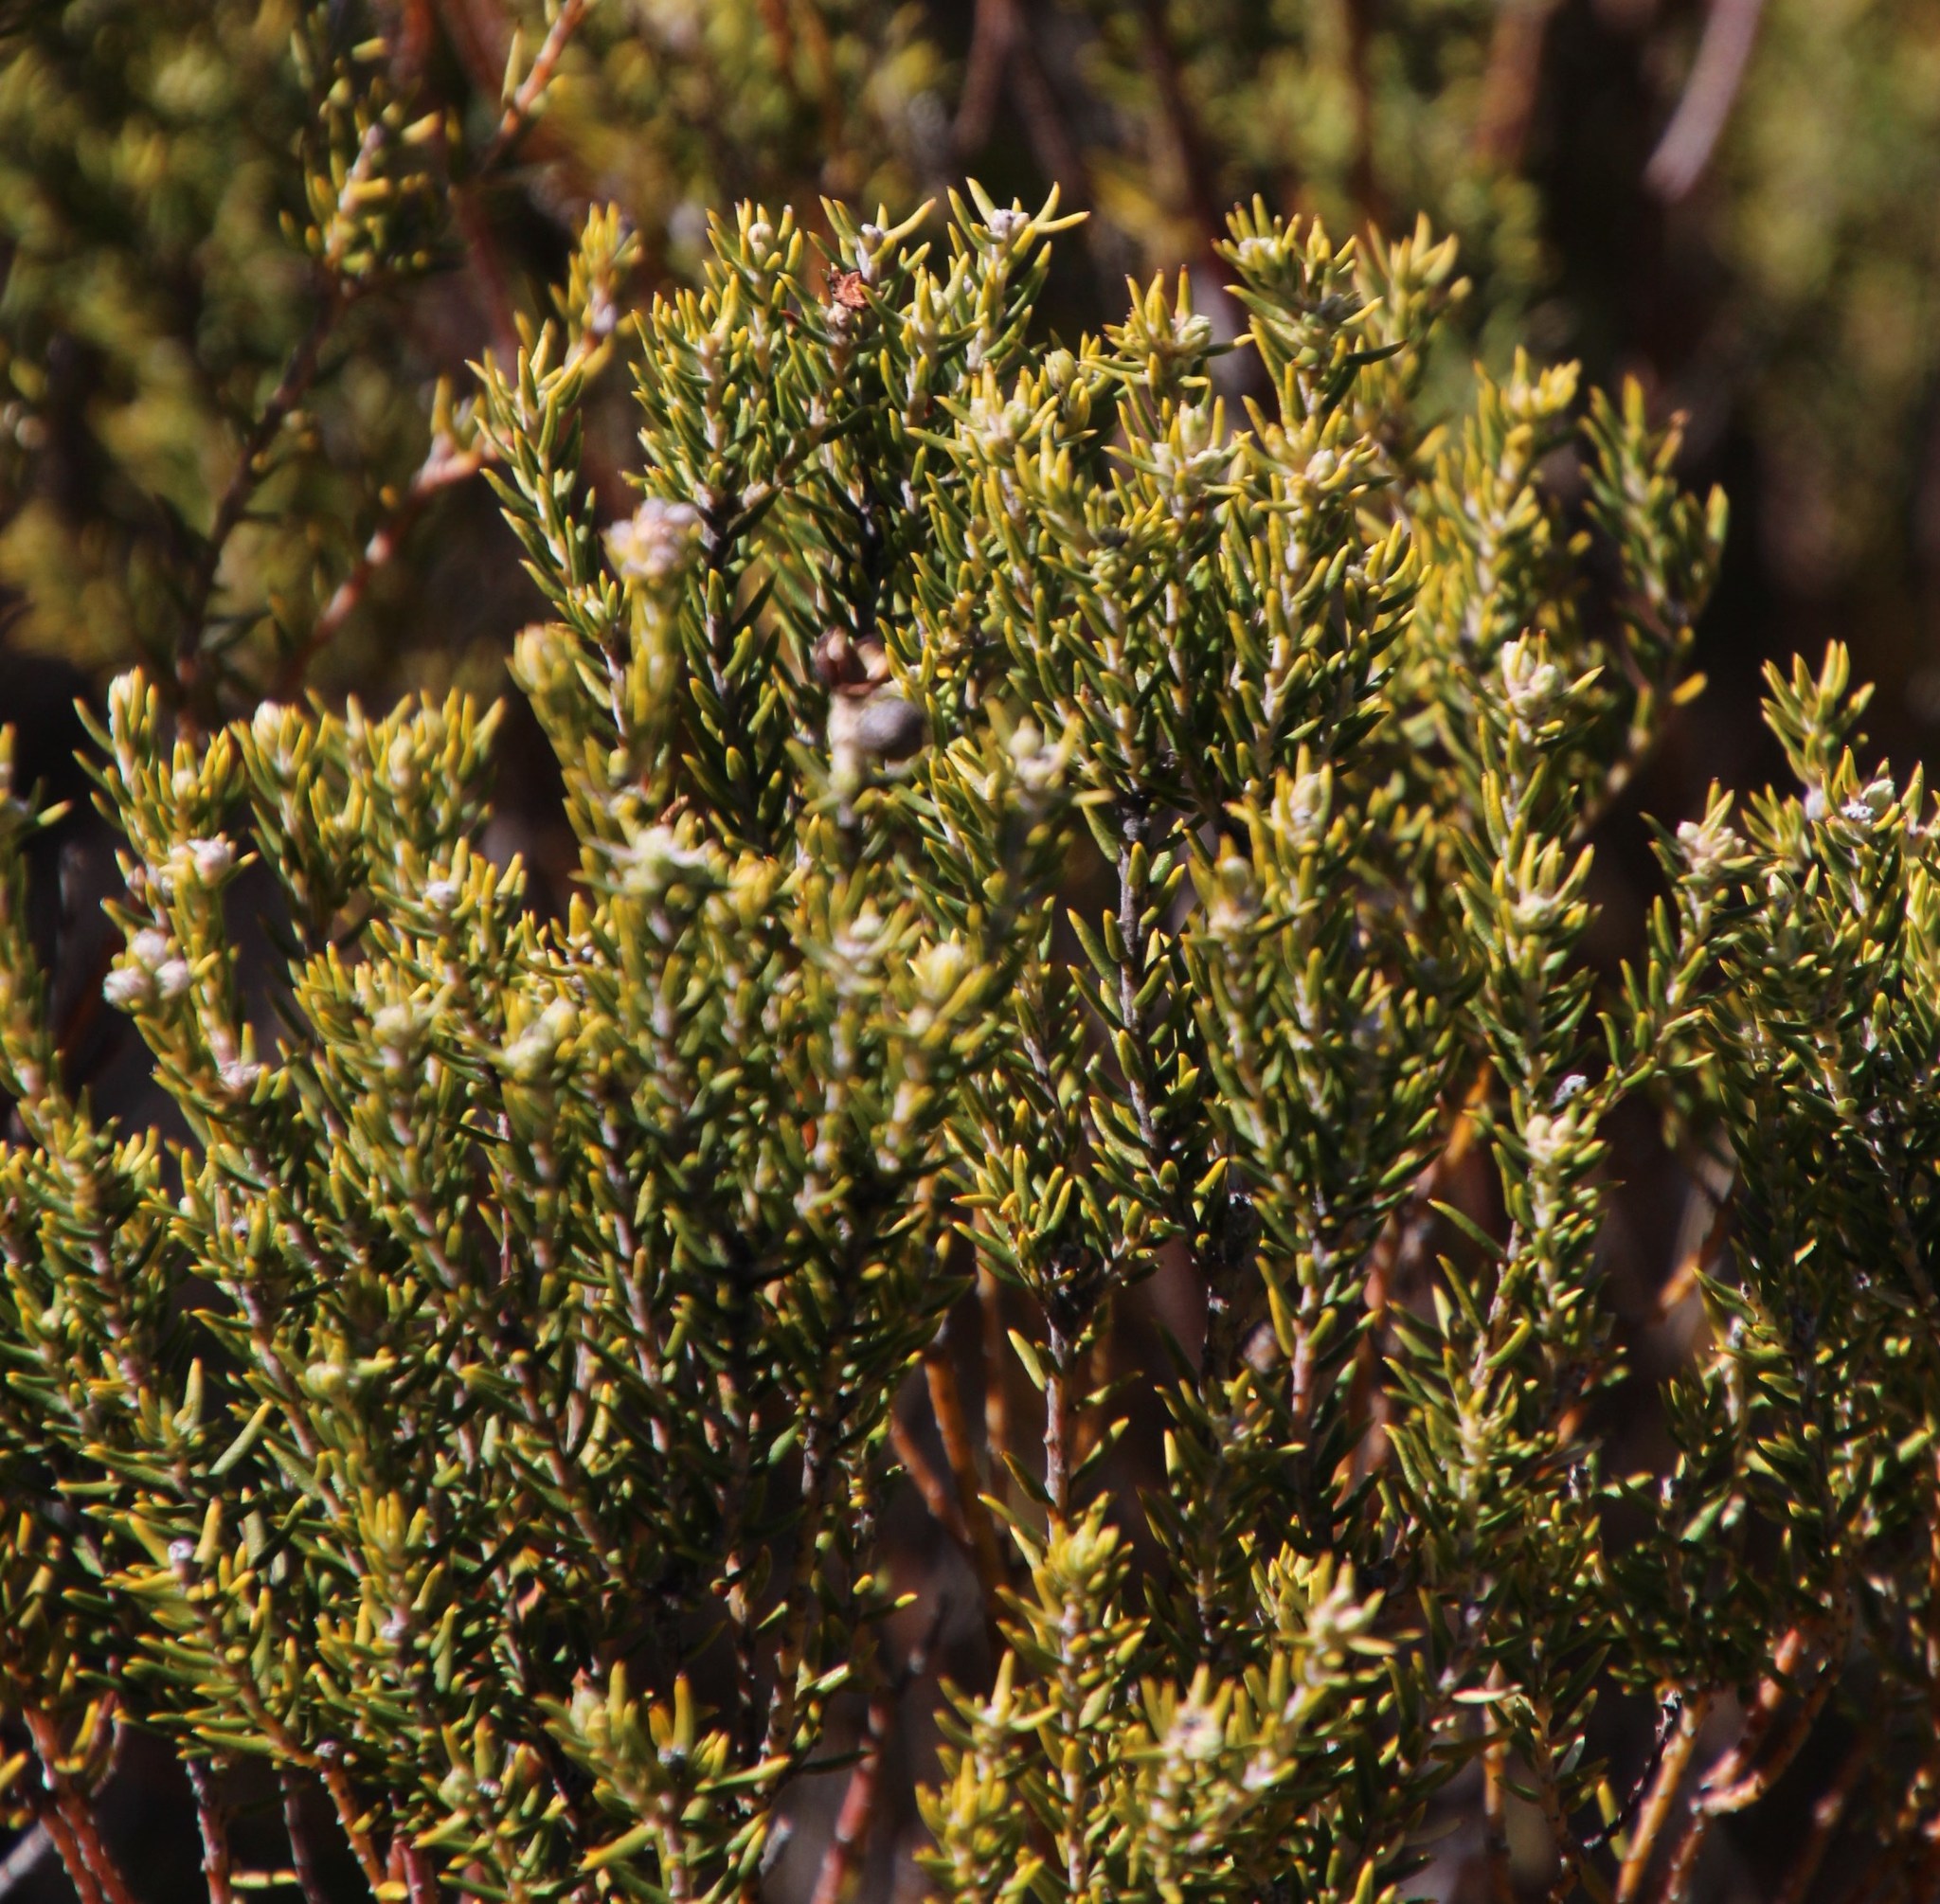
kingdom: Plantae
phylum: Tracheophyta
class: Magnoliopsida
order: Rosales
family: Rhamnaceae
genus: Phylica
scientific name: Phylica montana
